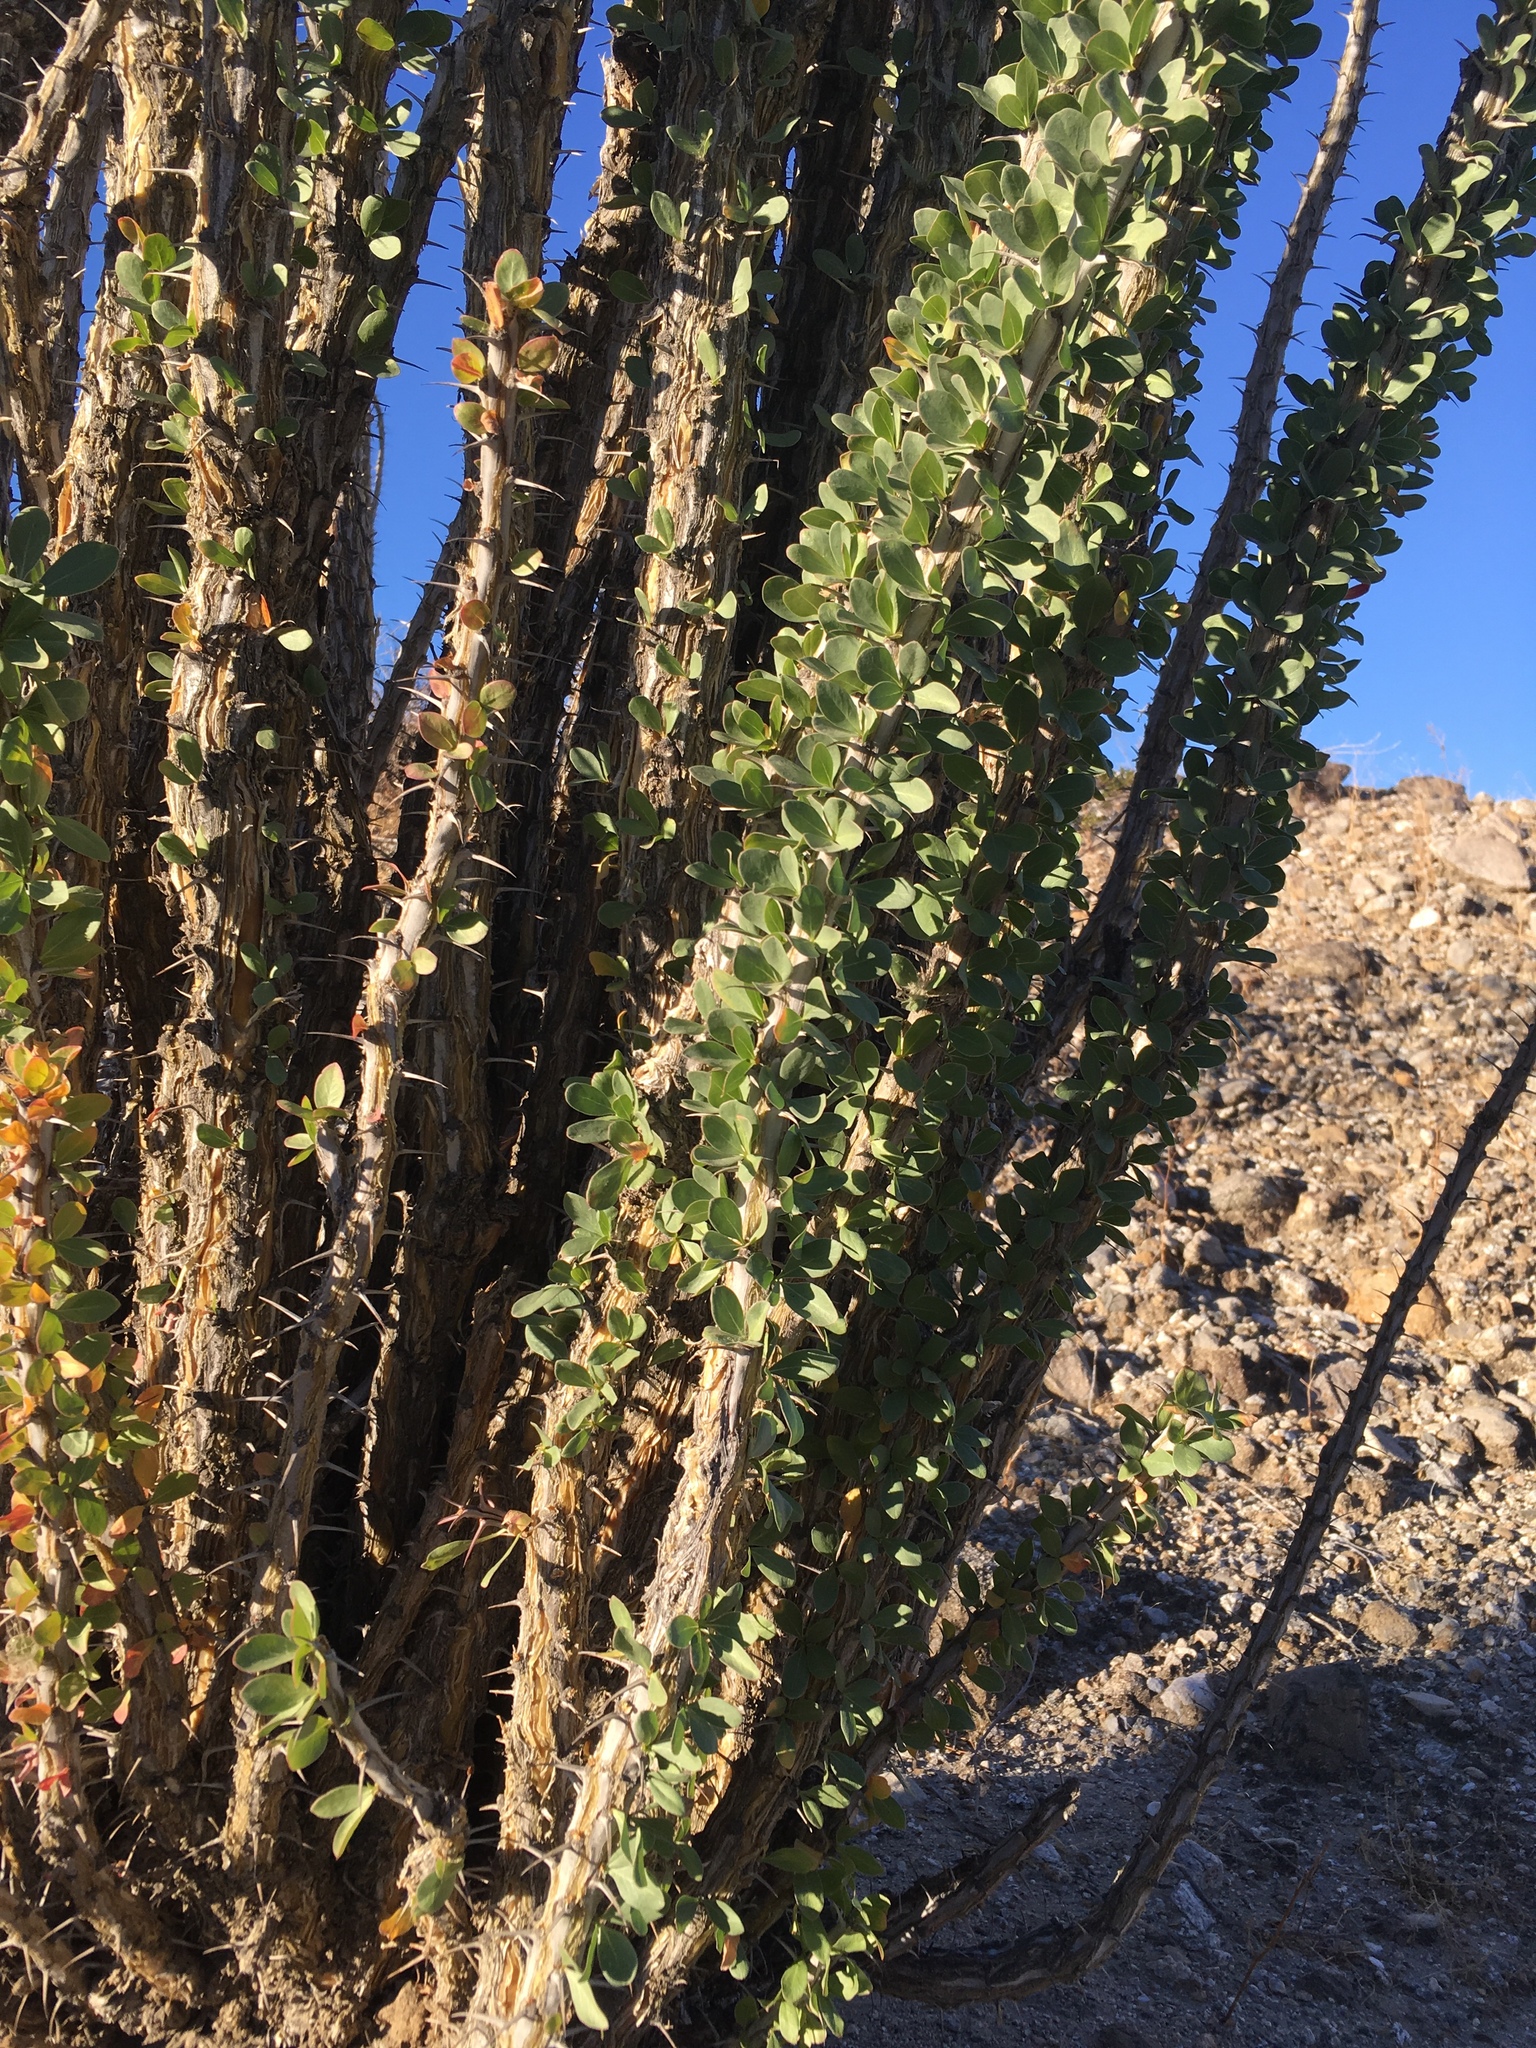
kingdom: Plantae
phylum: Tracheophyta
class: Magnoliopsida
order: Ericales
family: Fouquieriaceae
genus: Fouquieria
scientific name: Fouquieria splendens
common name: Vine-cactus
